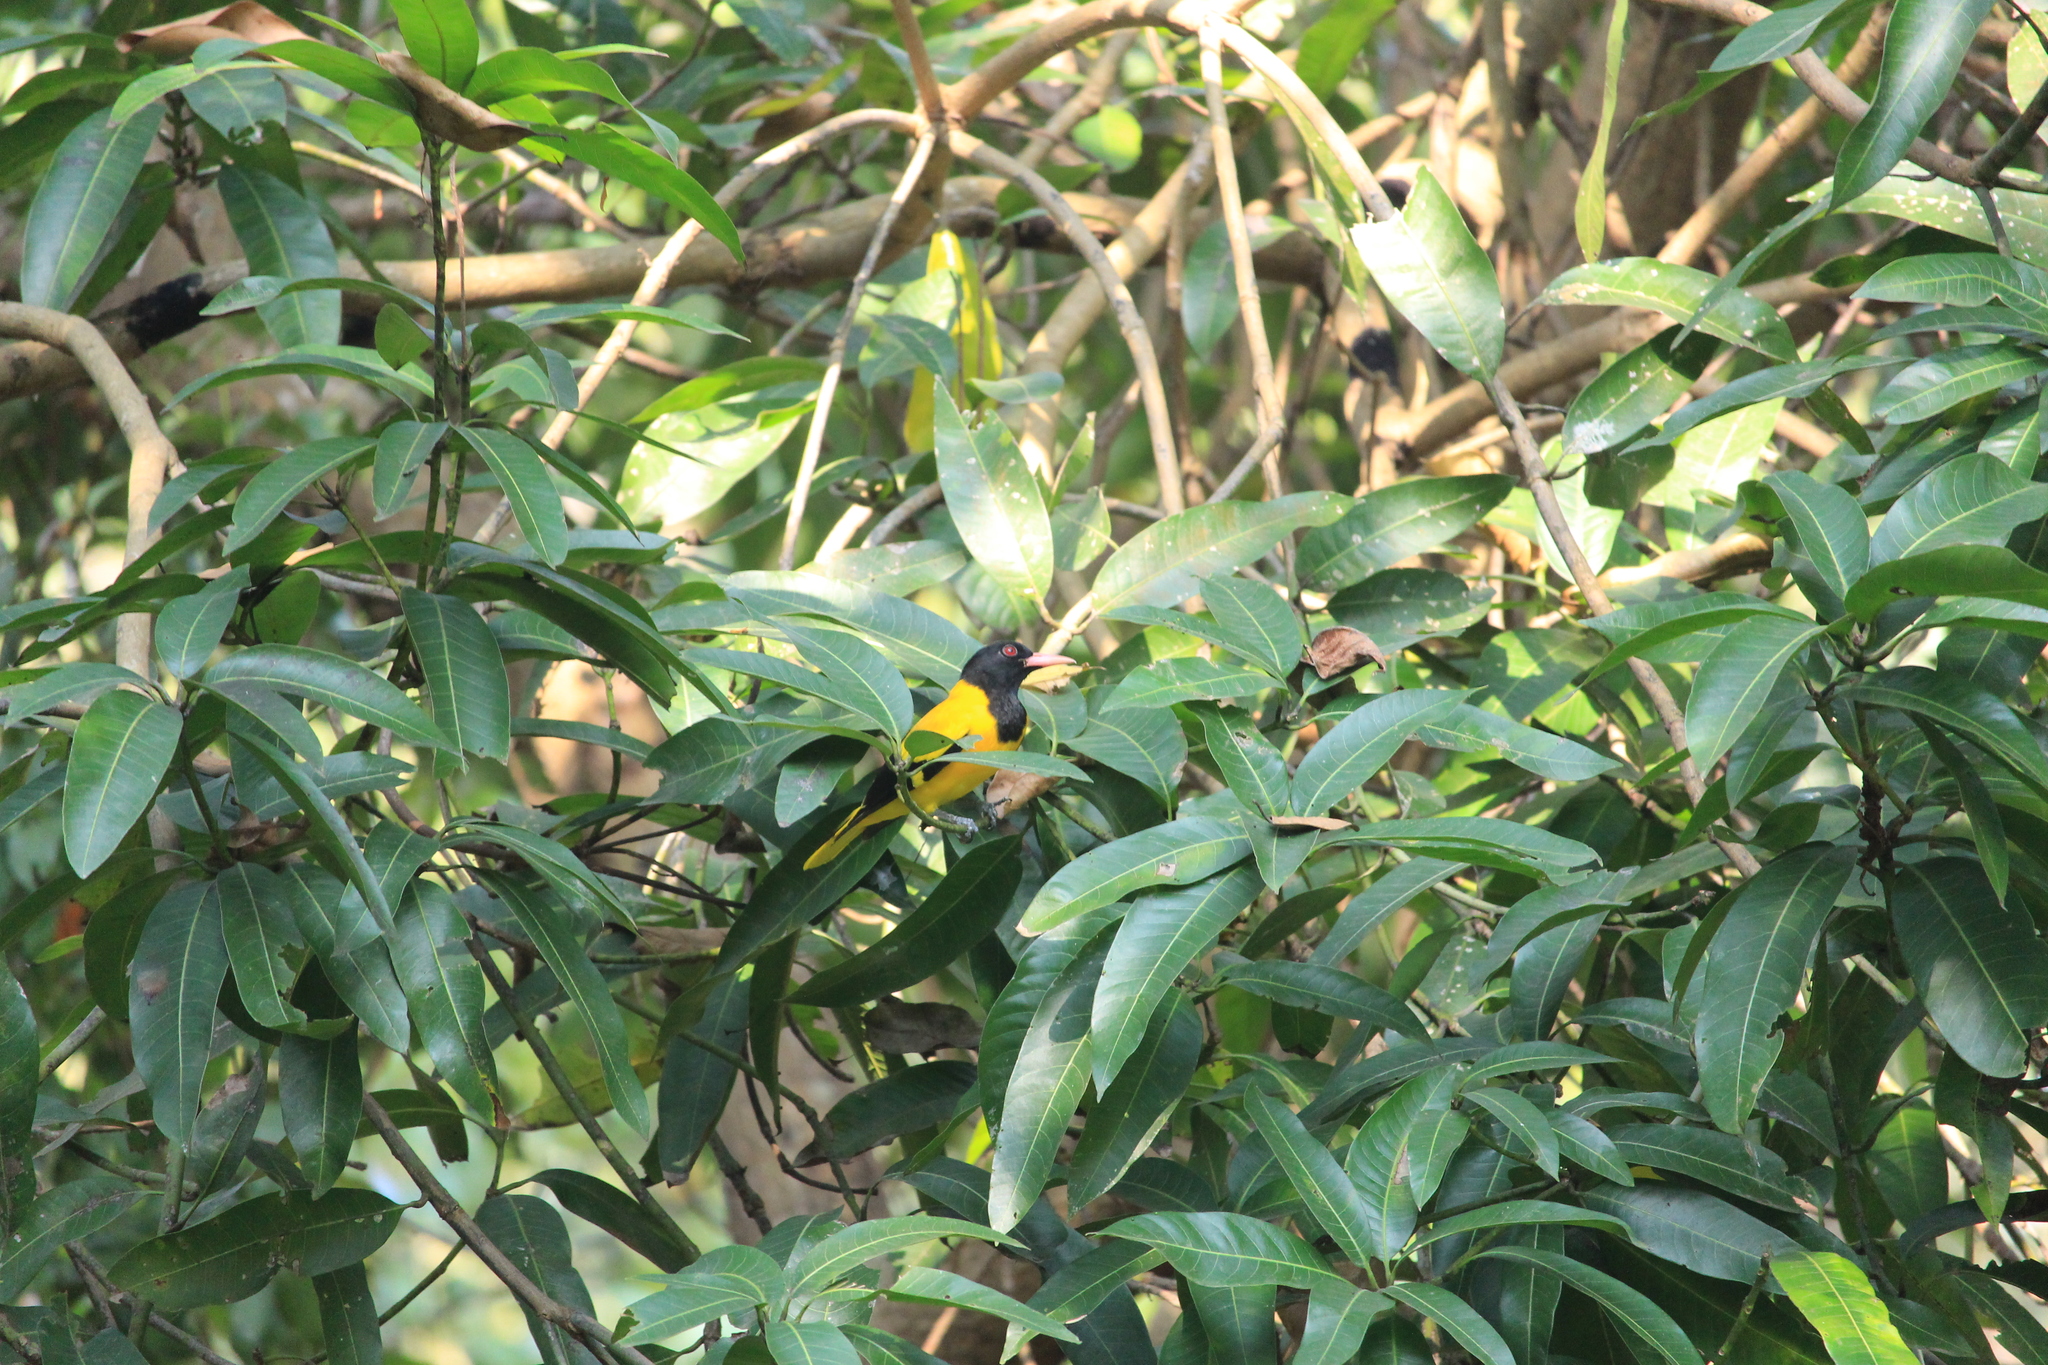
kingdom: Animalia
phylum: Chordata
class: Aves
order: Passeriformes
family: Oriolidae
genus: Oriolus
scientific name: Oriolus xanthornus
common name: Black-hooded oriole
